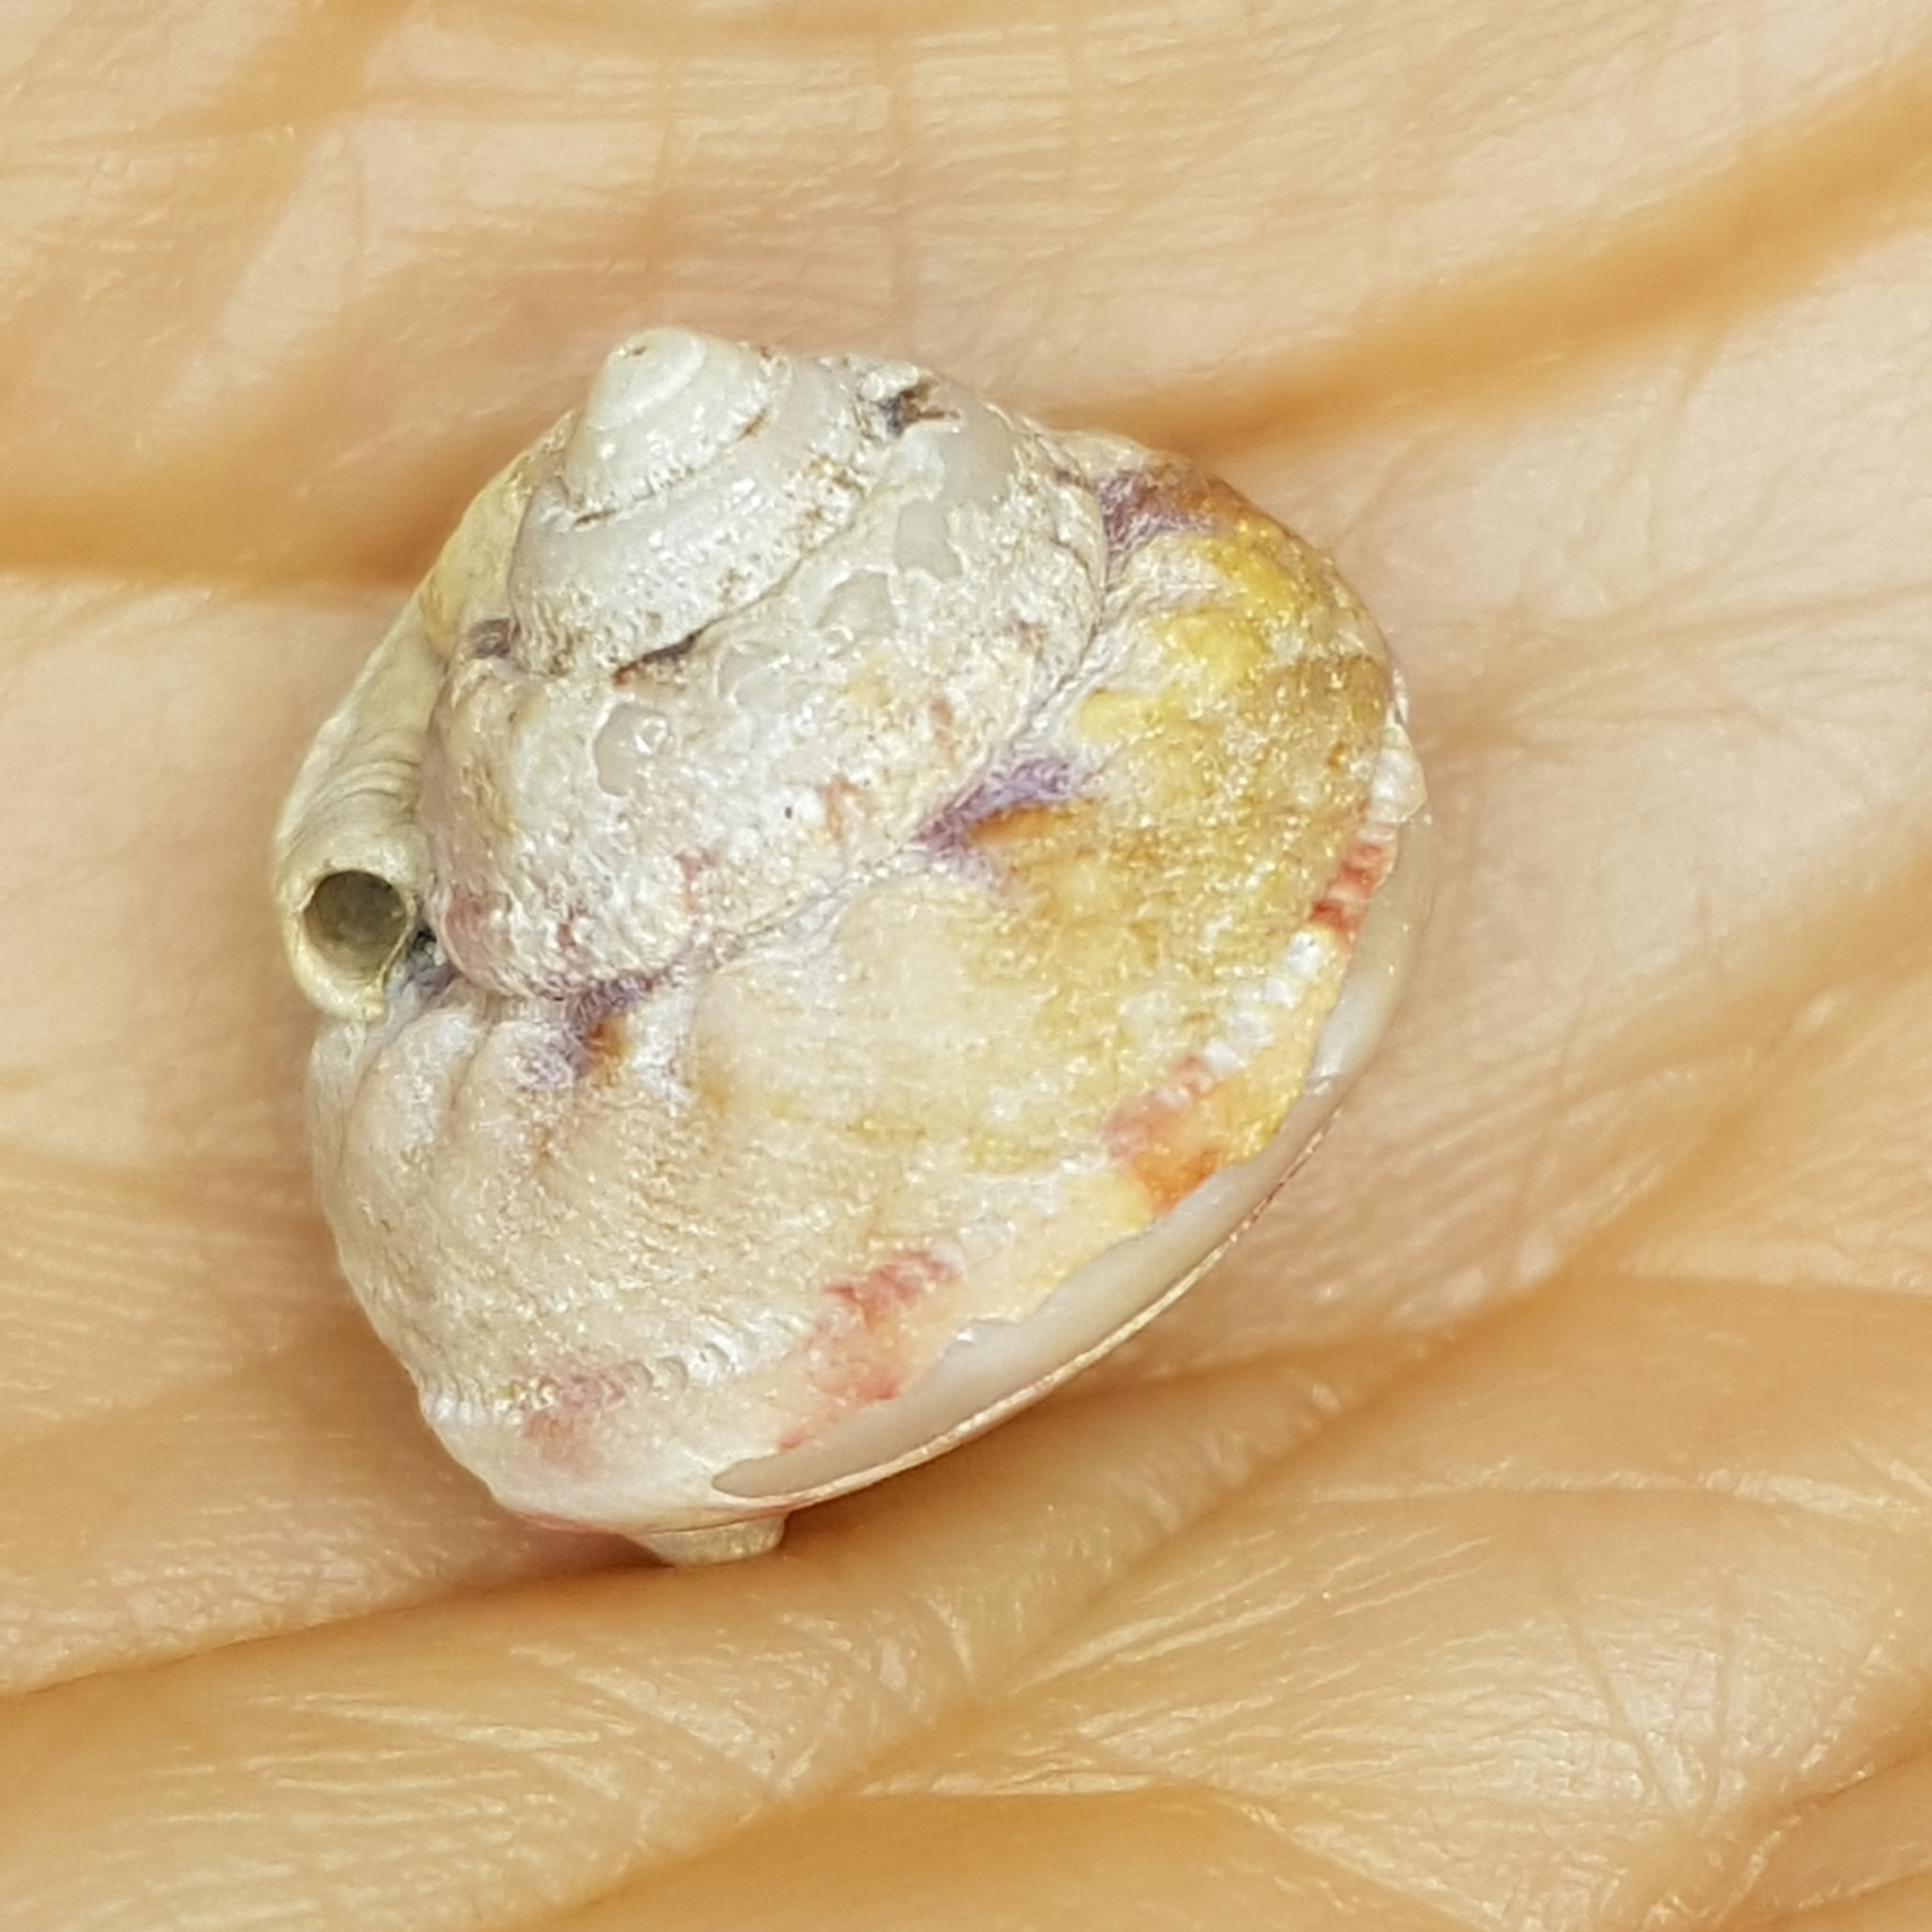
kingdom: Animalia
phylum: Mollusca
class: Gastropoda
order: Trochida
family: Trochidae
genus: Gibbula
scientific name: Gibbula magus
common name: Turban top shell
